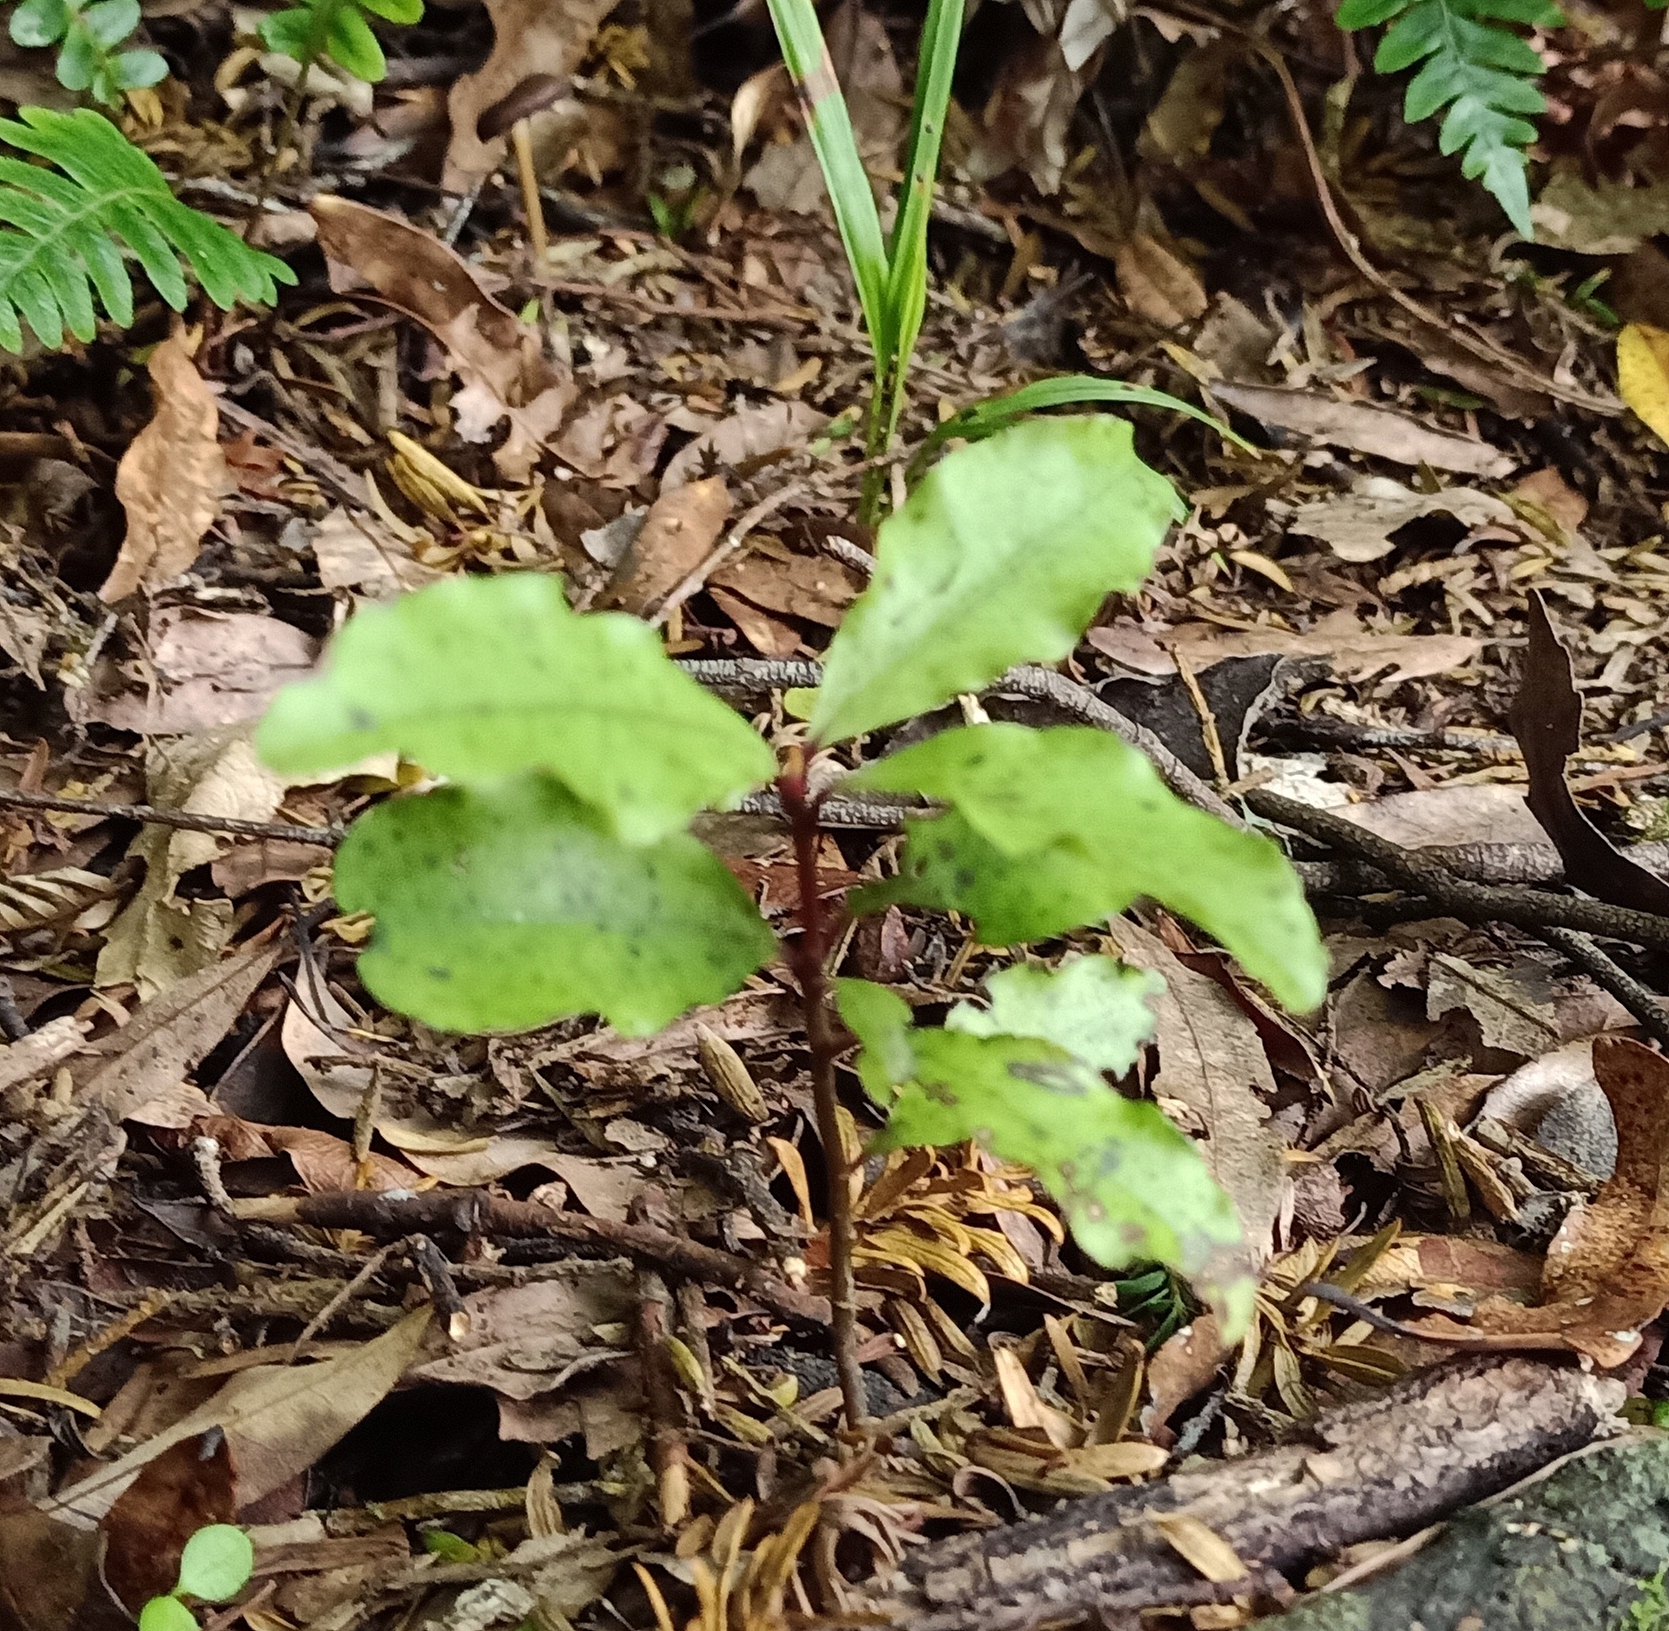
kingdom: Plantae
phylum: Tracheophyta
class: Magnoliopsida
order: Ericales
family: Primulaceae
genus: Myrsine
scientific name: Myrsine australis
